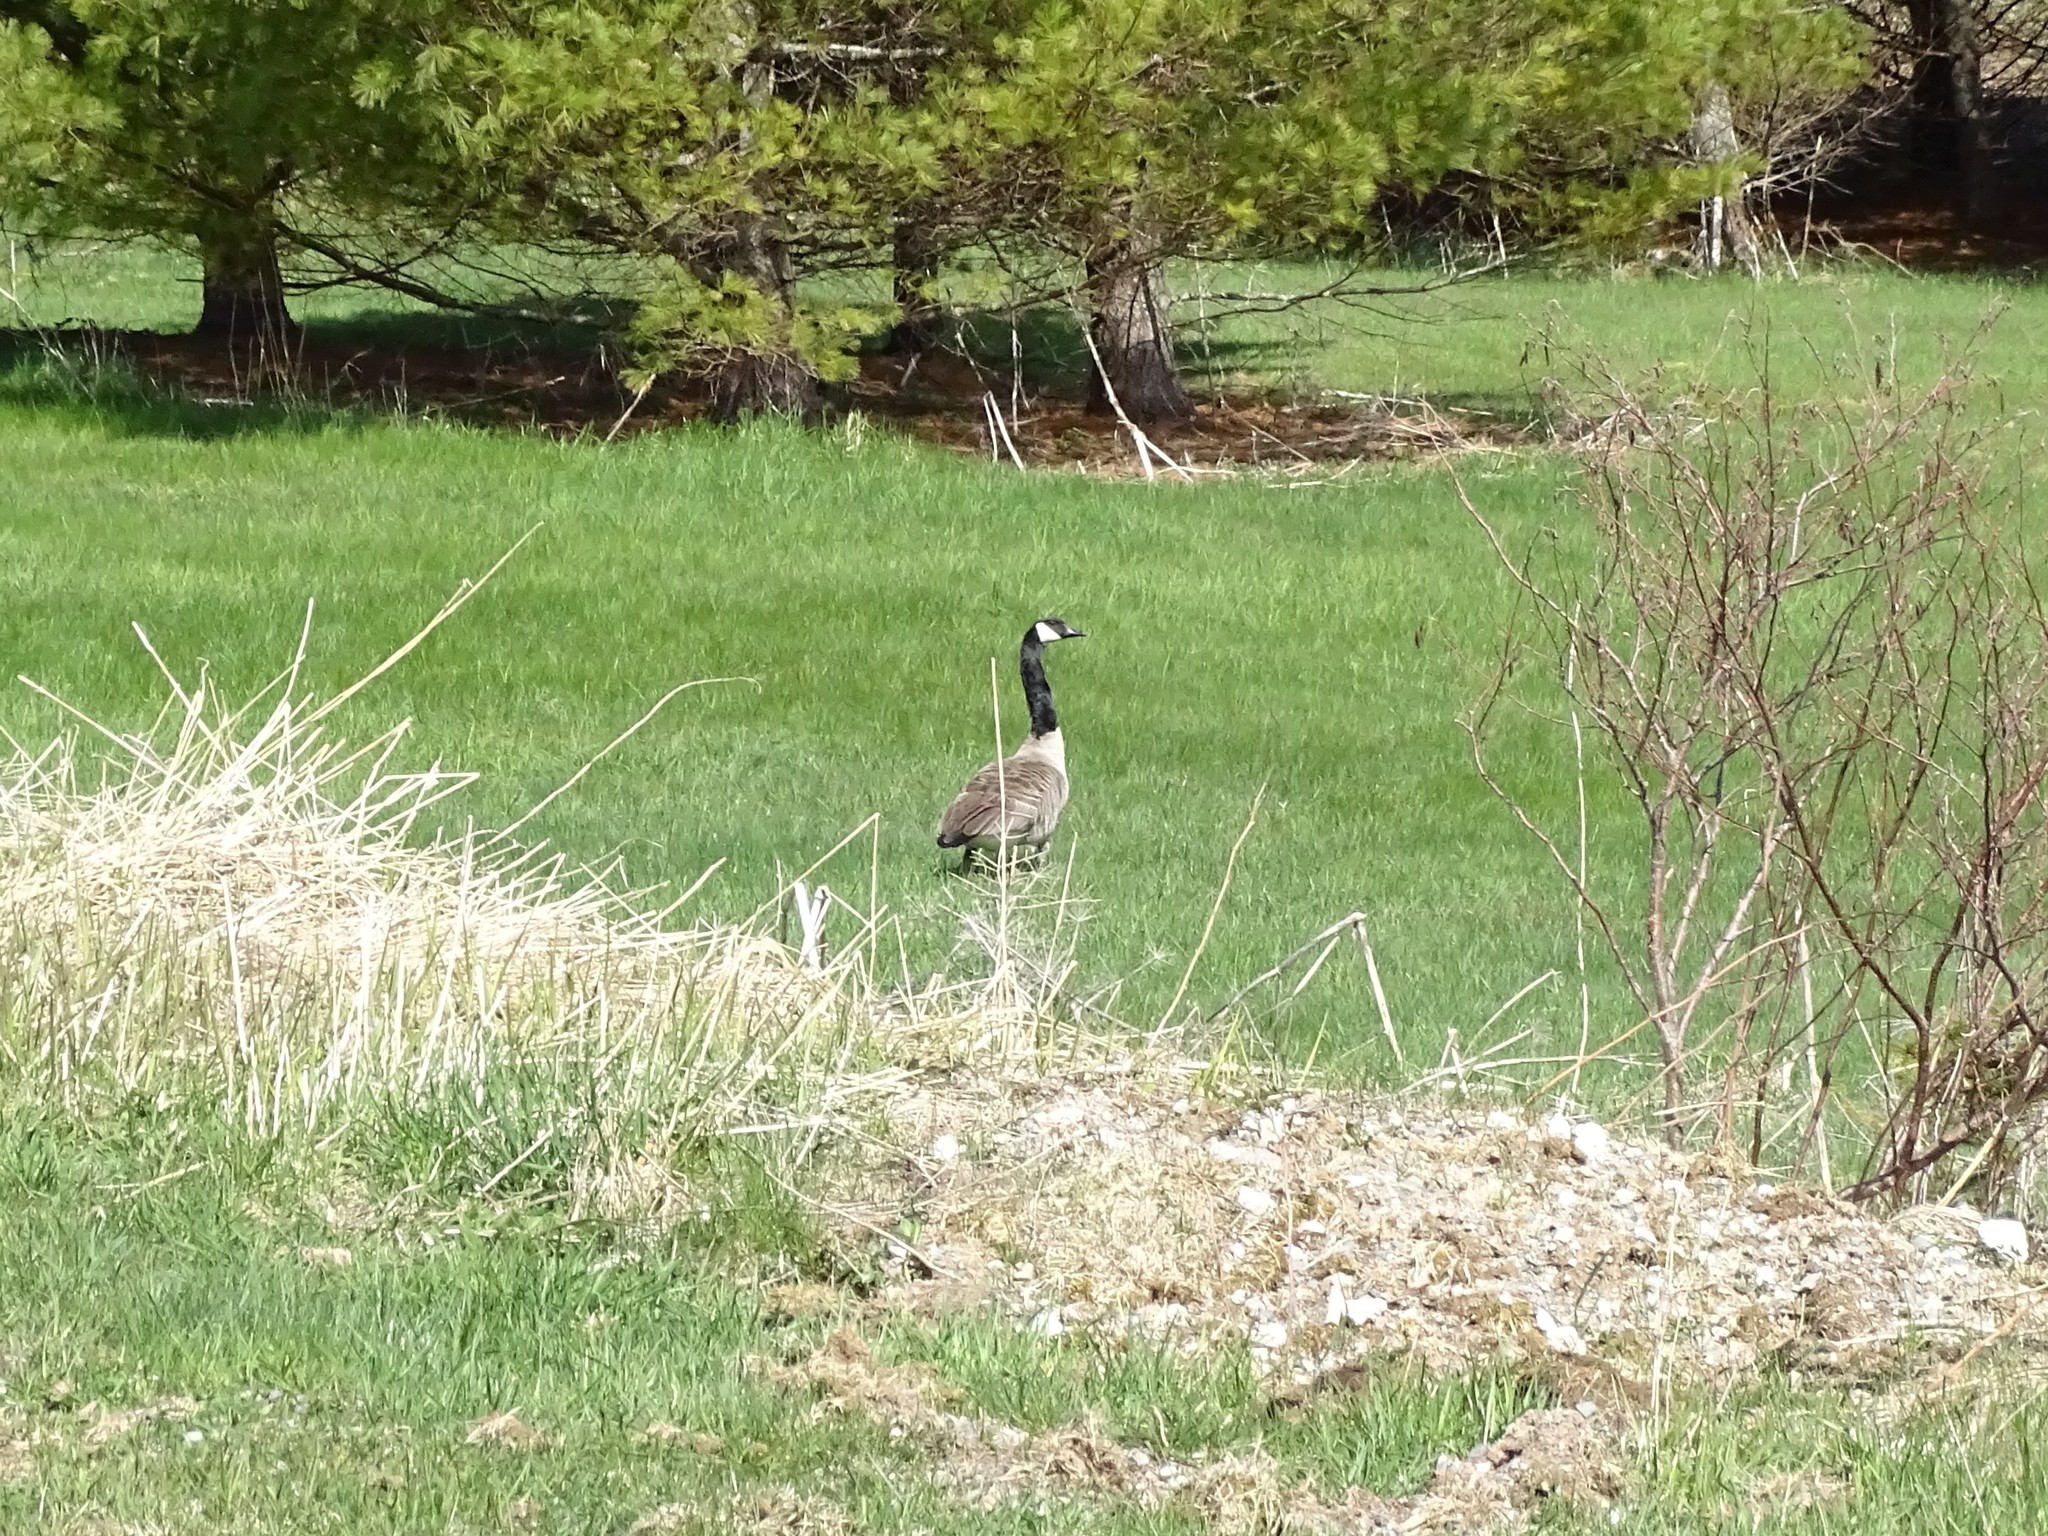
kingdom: Animalia
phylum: Chordata
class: Aves
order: Anseriformes
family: Anatidae
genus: Branta
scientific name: Branta canadensis
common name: Canada goose
